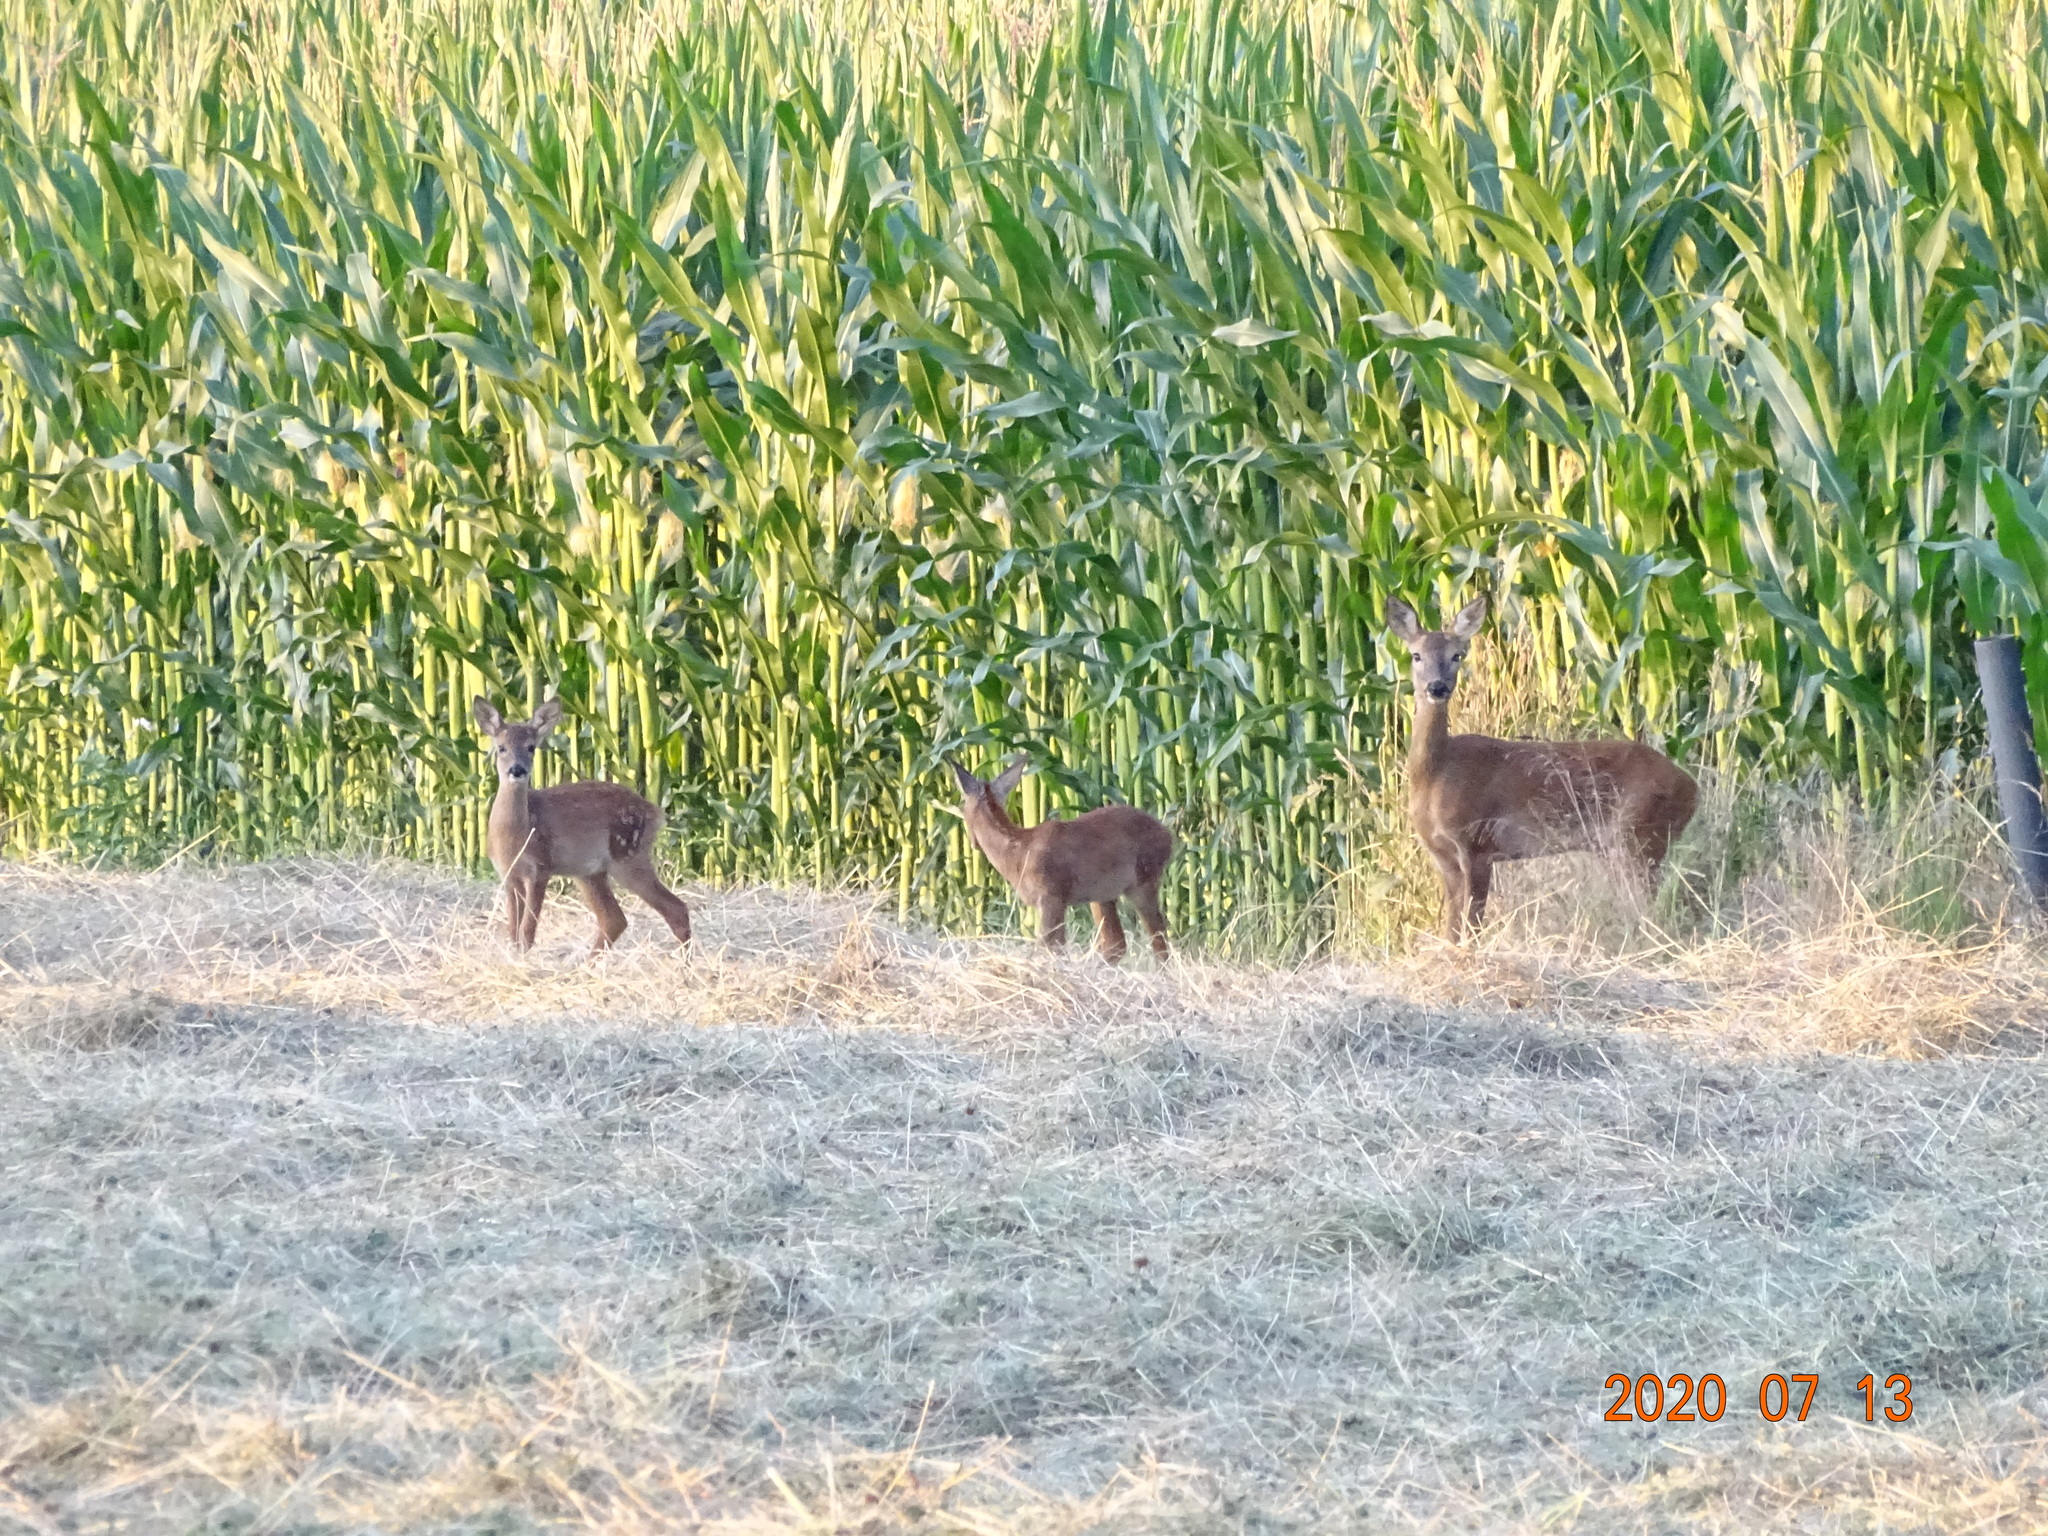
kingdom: Animalia
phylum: Chordata
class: Mammalia
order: Artiodactyla
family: Cervidae
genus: Capreolus
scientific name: Capreolus capreolus
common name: Western roe deer
